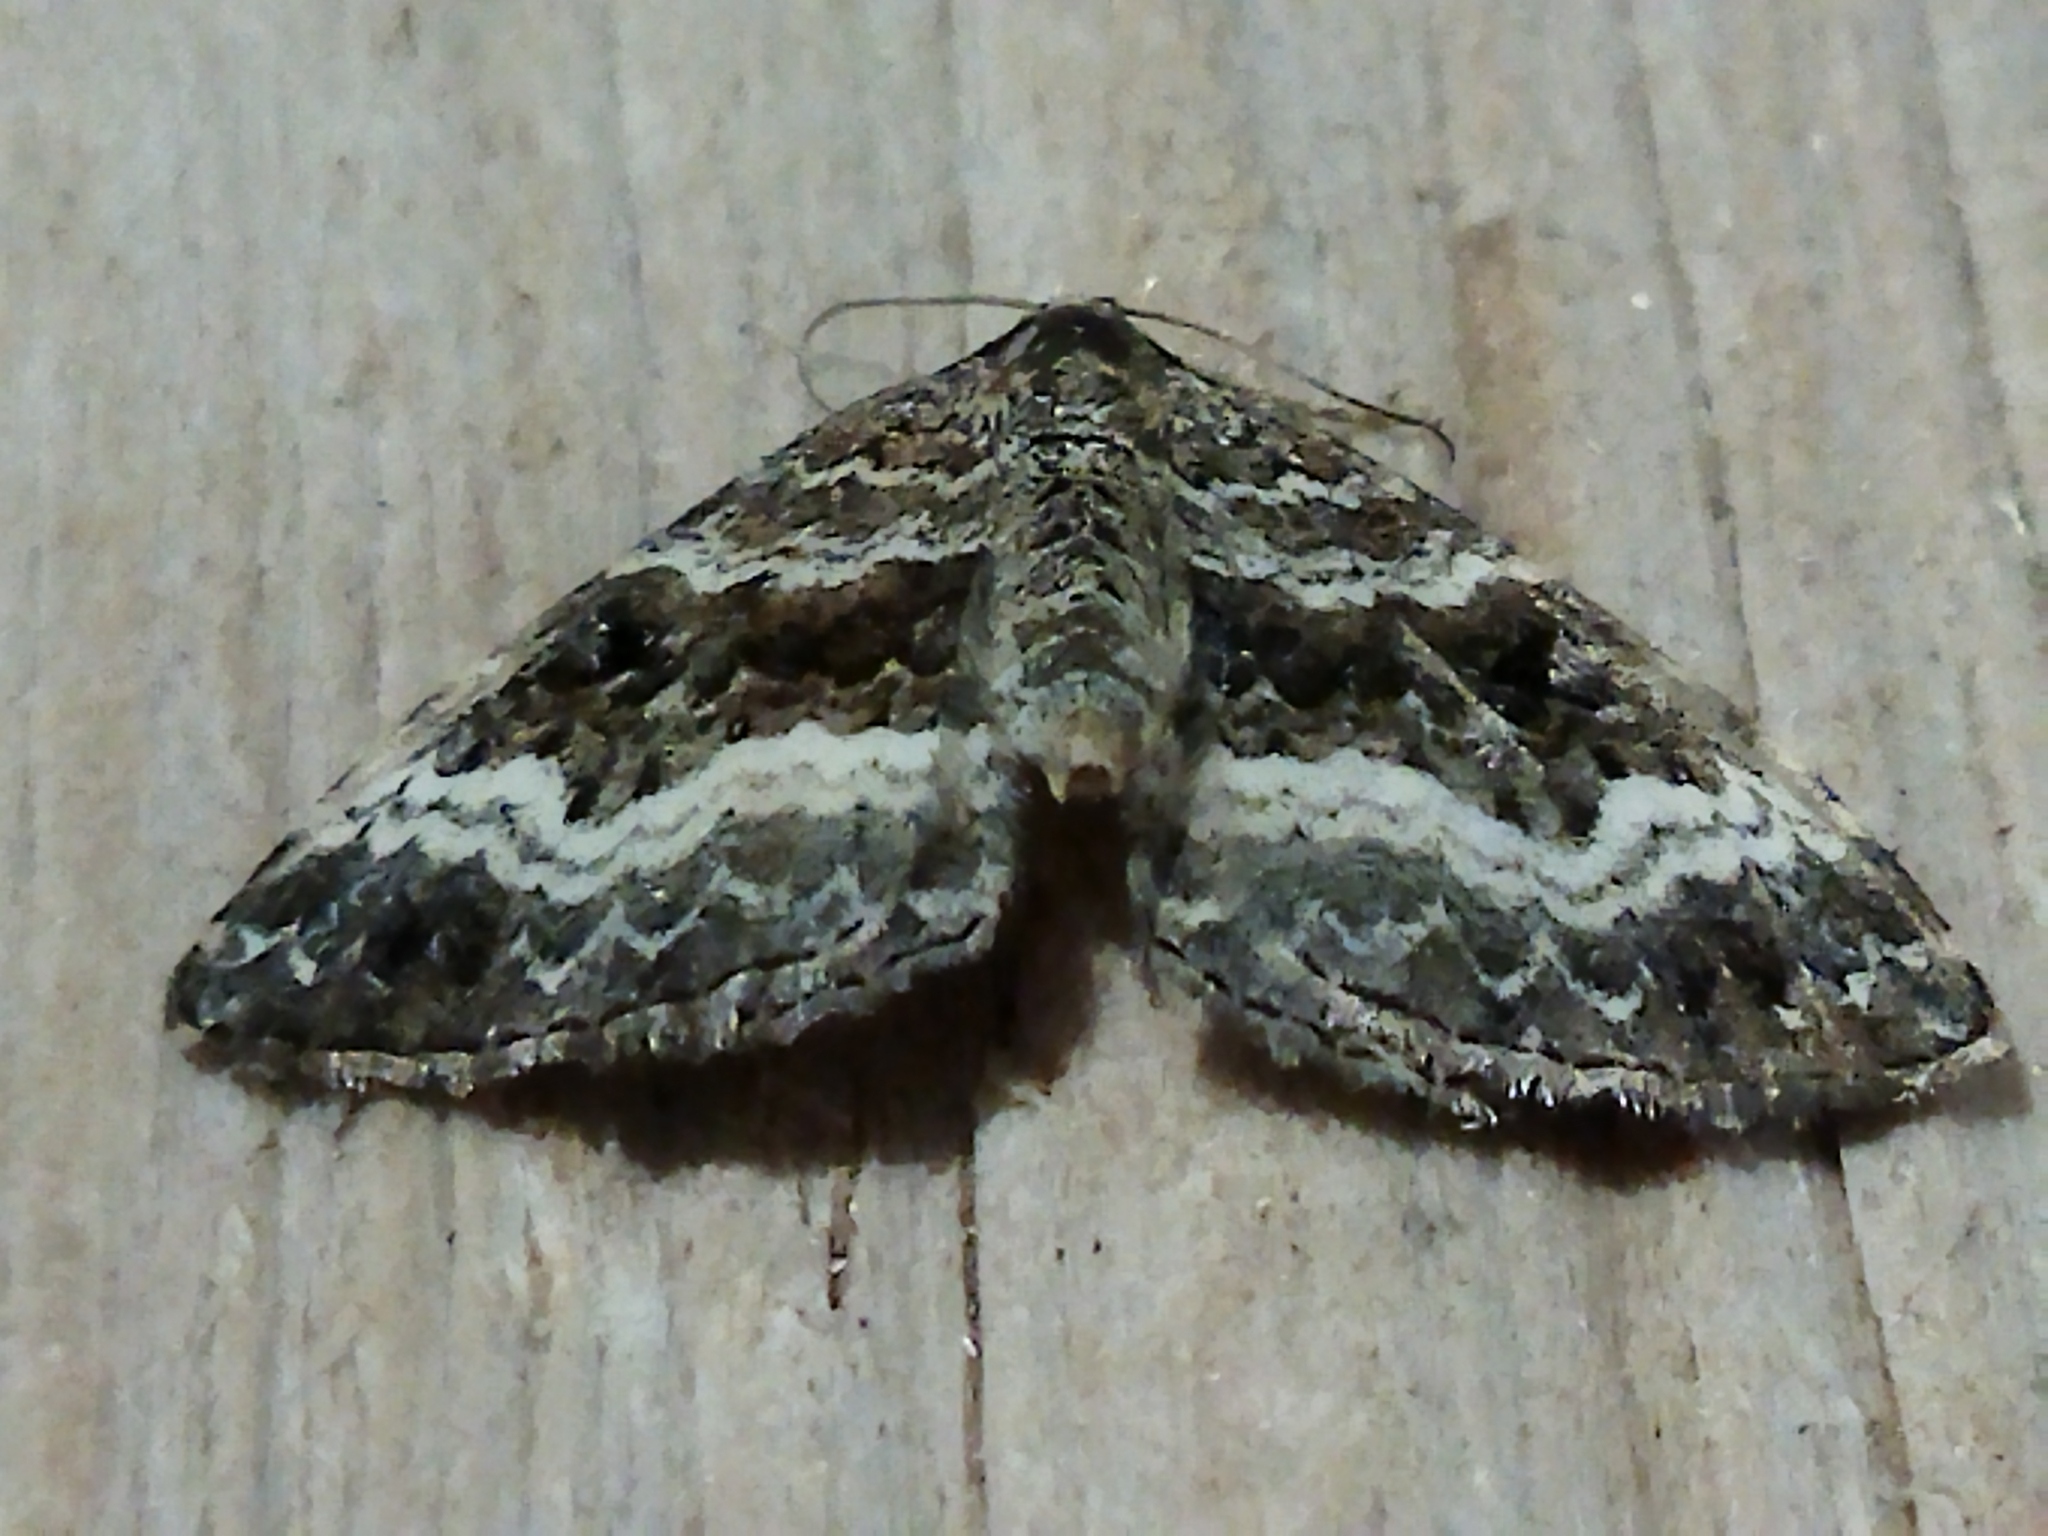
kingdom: Animalia
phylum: Arthropoda
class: Insecta
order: Lepidoptera
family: Geometridae
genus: Epirrhoe
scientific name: Epirrhoe alternata
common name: Common carpet
